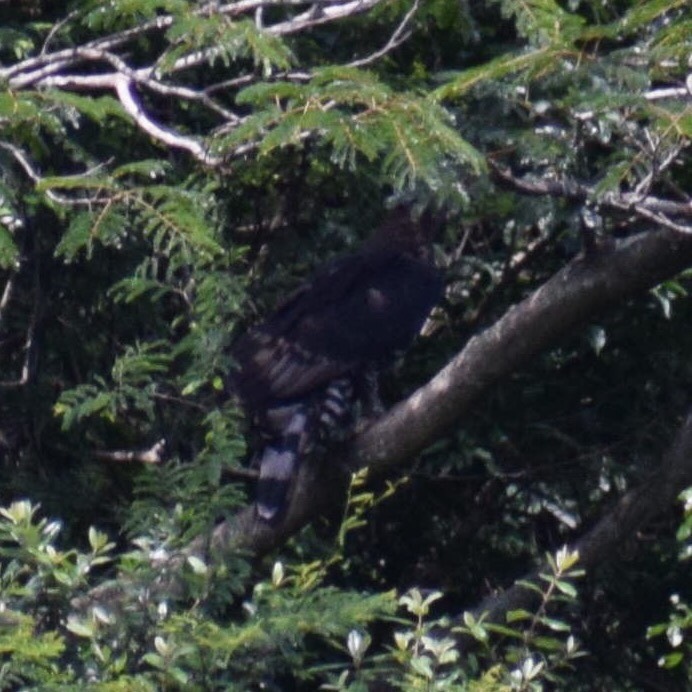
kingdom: Animalia
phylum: Chordata
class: Aves
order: Accipitriformes
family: Accipitridae
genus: Stephanoaetus
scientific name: Stephanoaetus coronatus
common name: Crowned eagle
